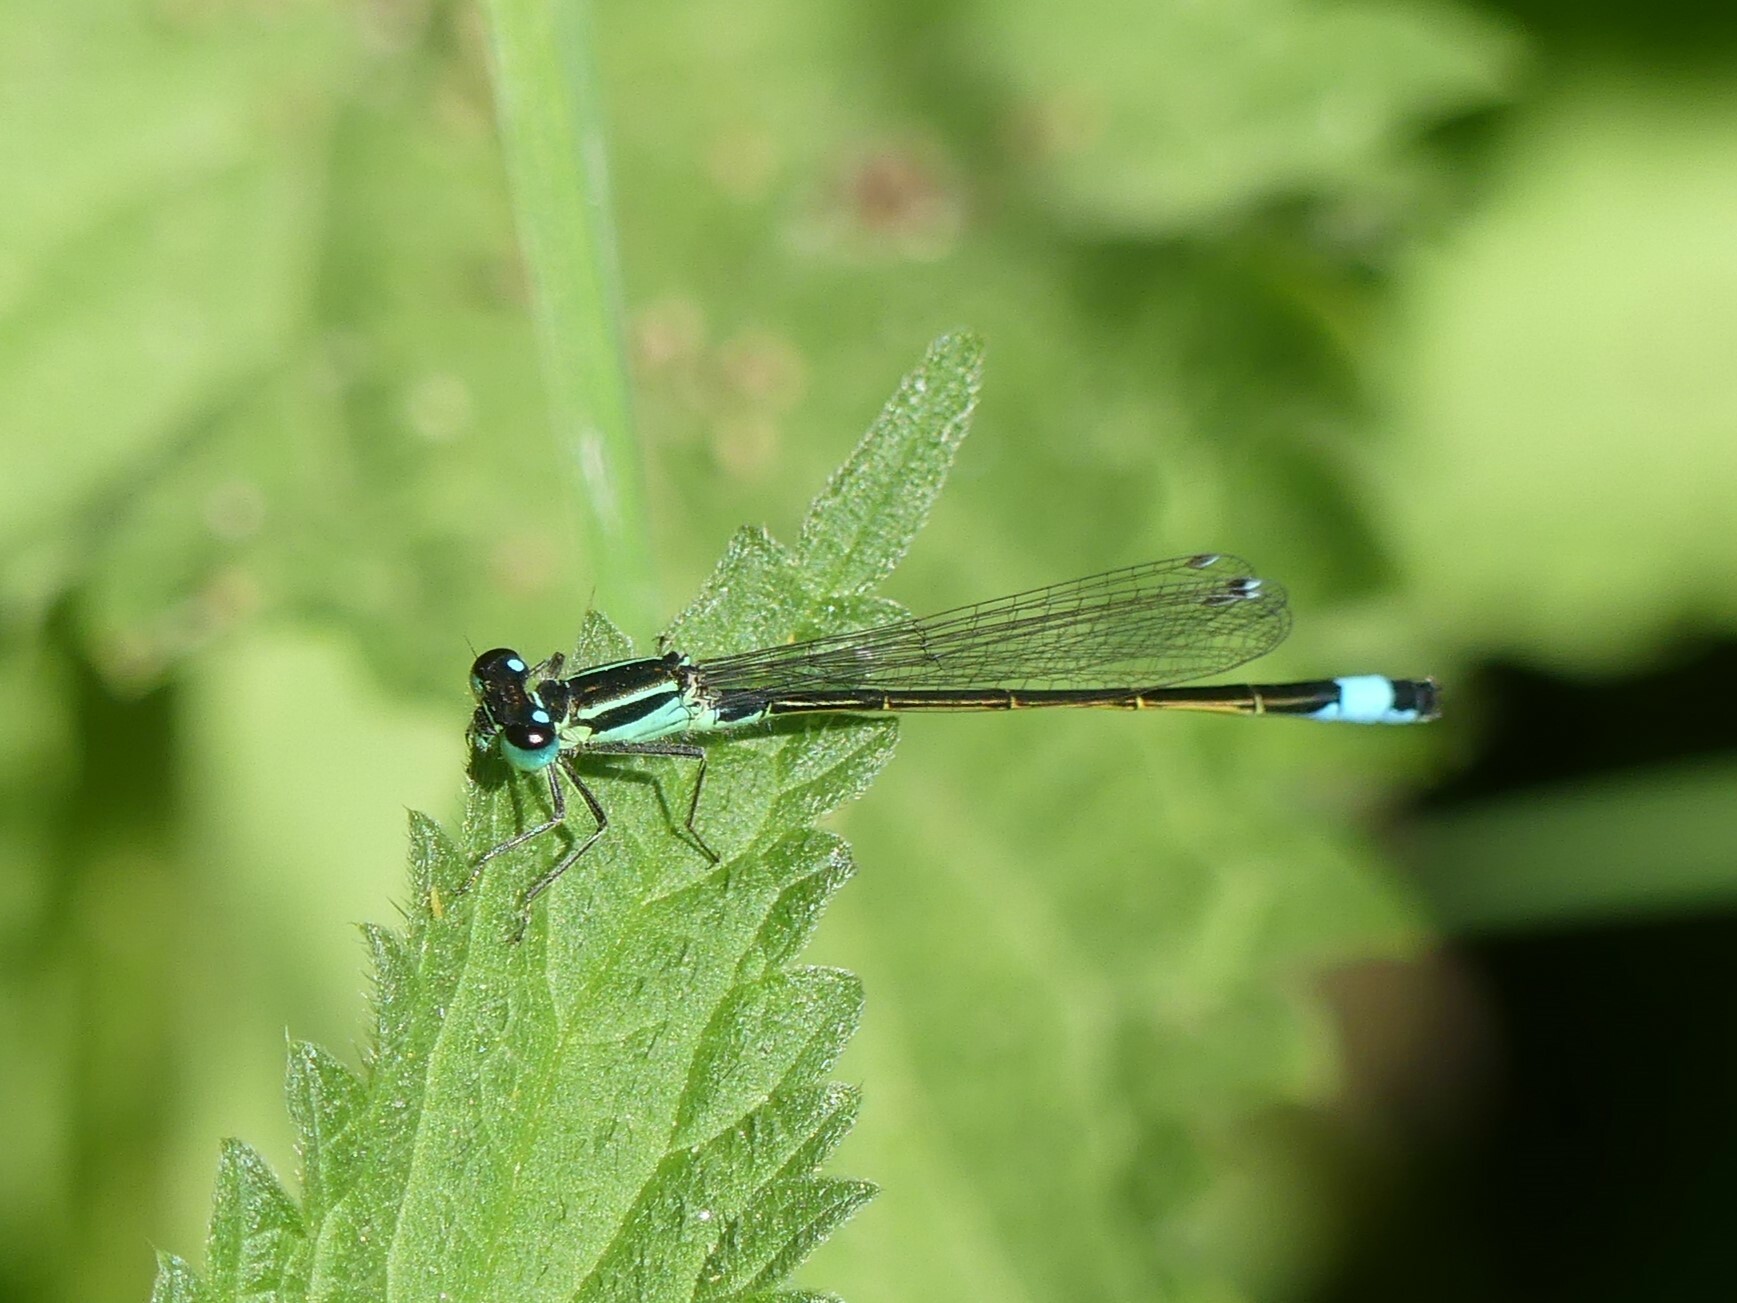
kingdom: Animalia
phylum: Arthropoda
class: Insecta
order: Odonata
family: Coenagrionidae
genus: Ischnura
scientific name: Ischnura elegans
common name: Blue-tailed damselfly
